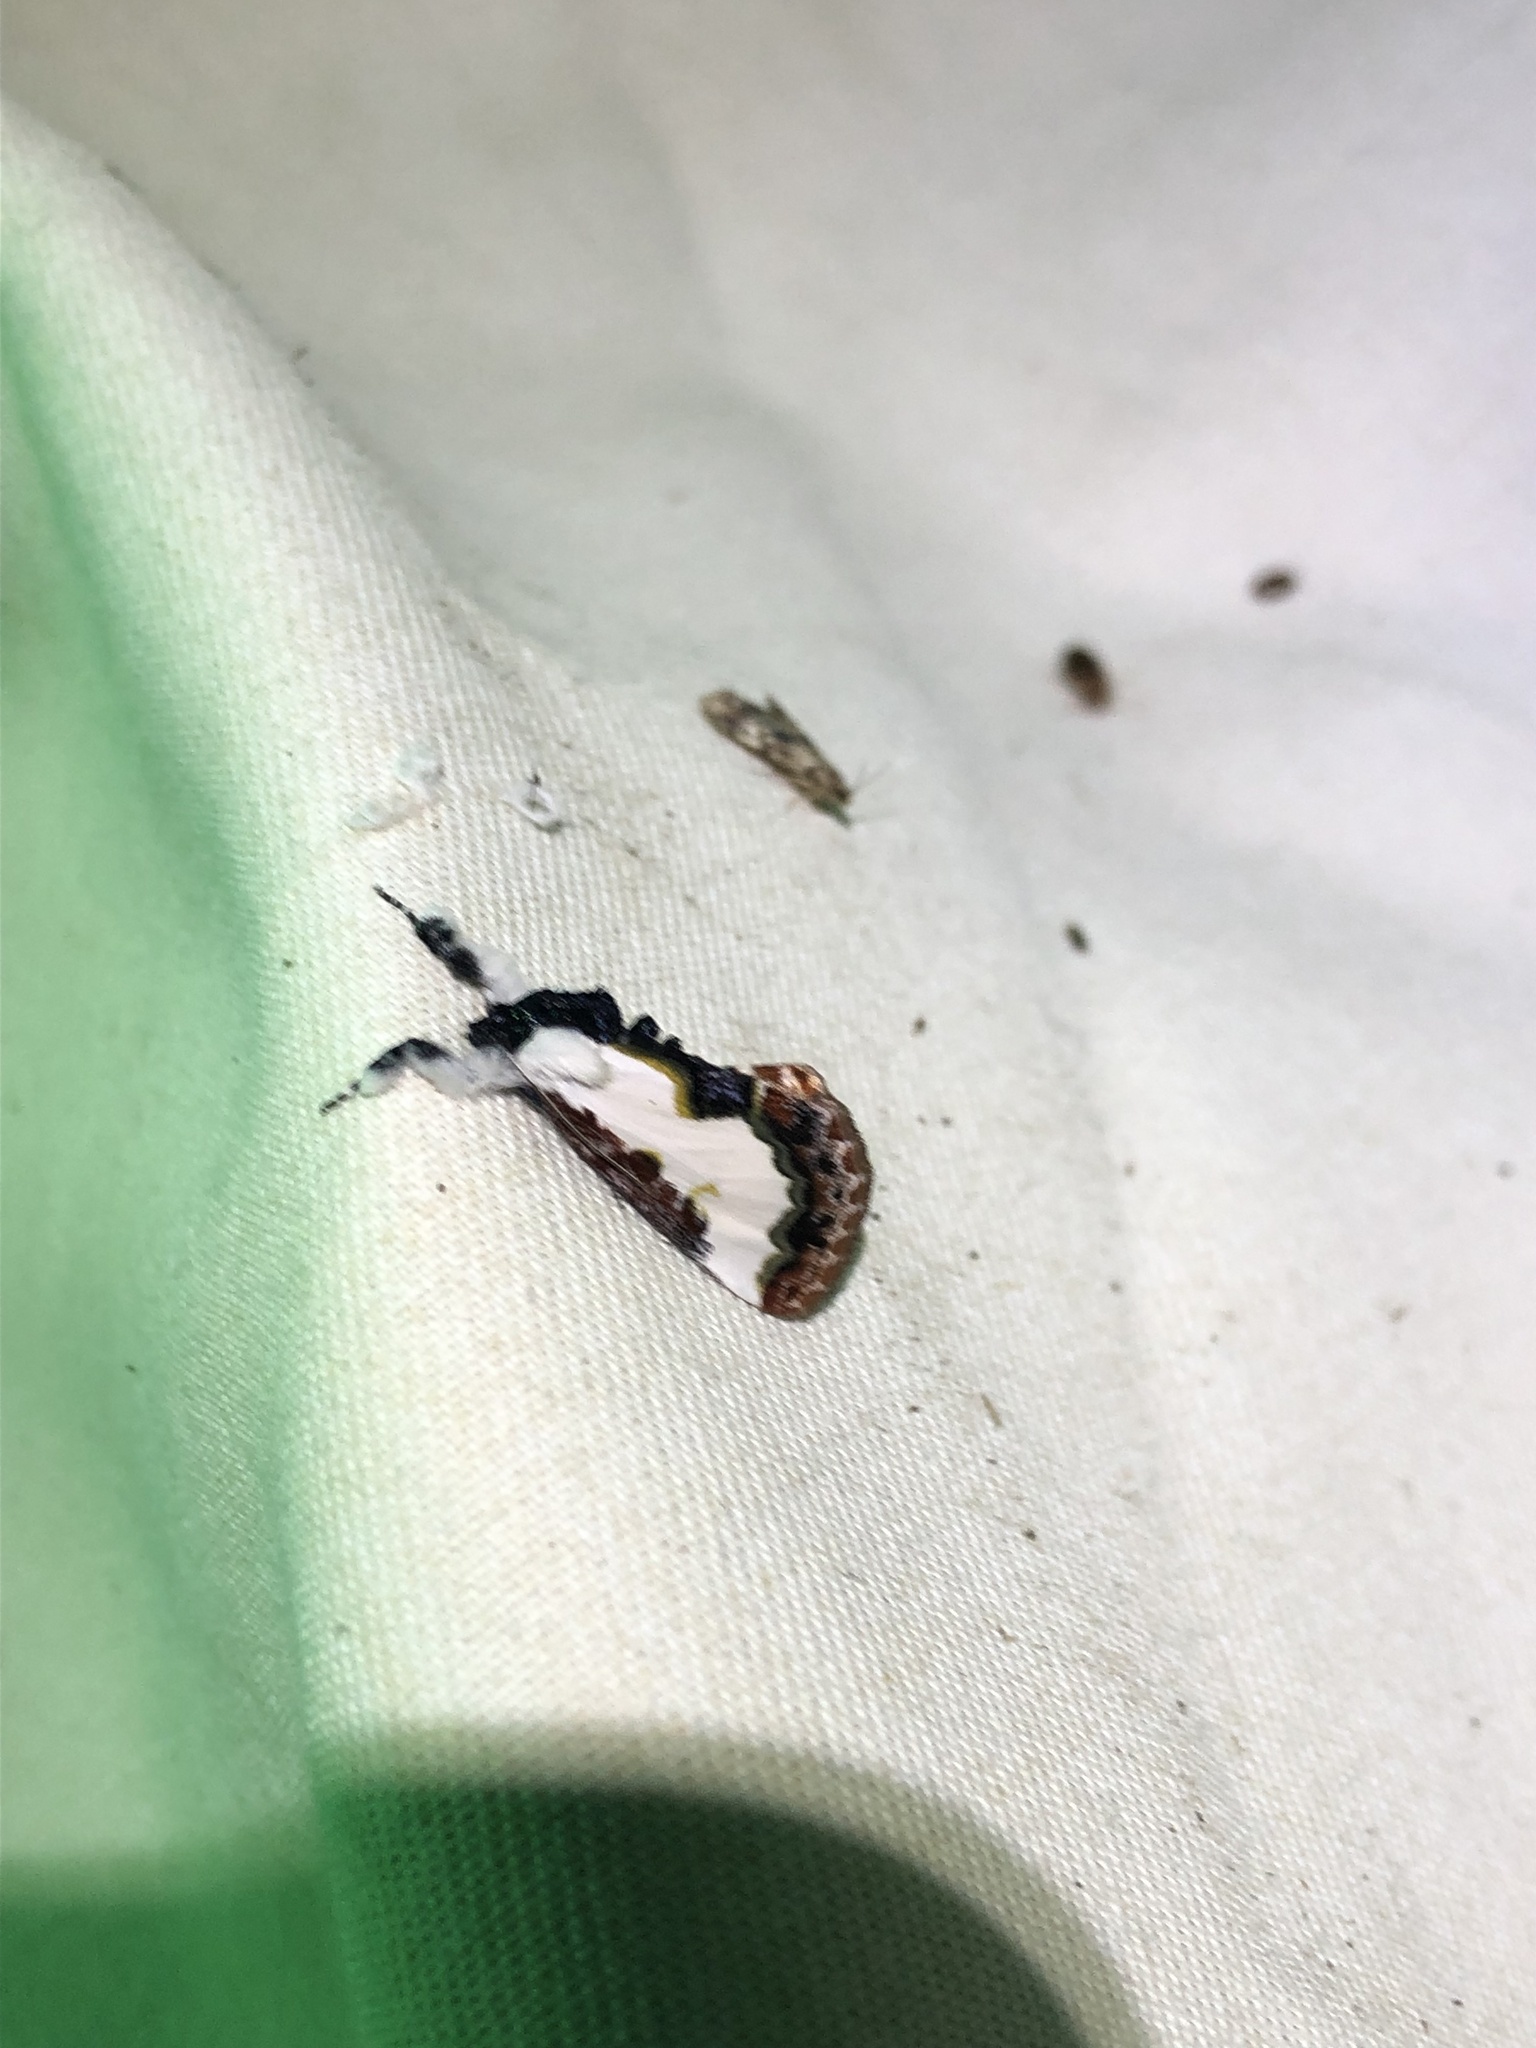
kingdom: Animalia
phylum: Arthropoda
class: Insecta
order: Lepidoptera
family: Noctuidae
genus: Eudryas
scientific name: Eudryas unio
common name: Pearly wood-nymph
